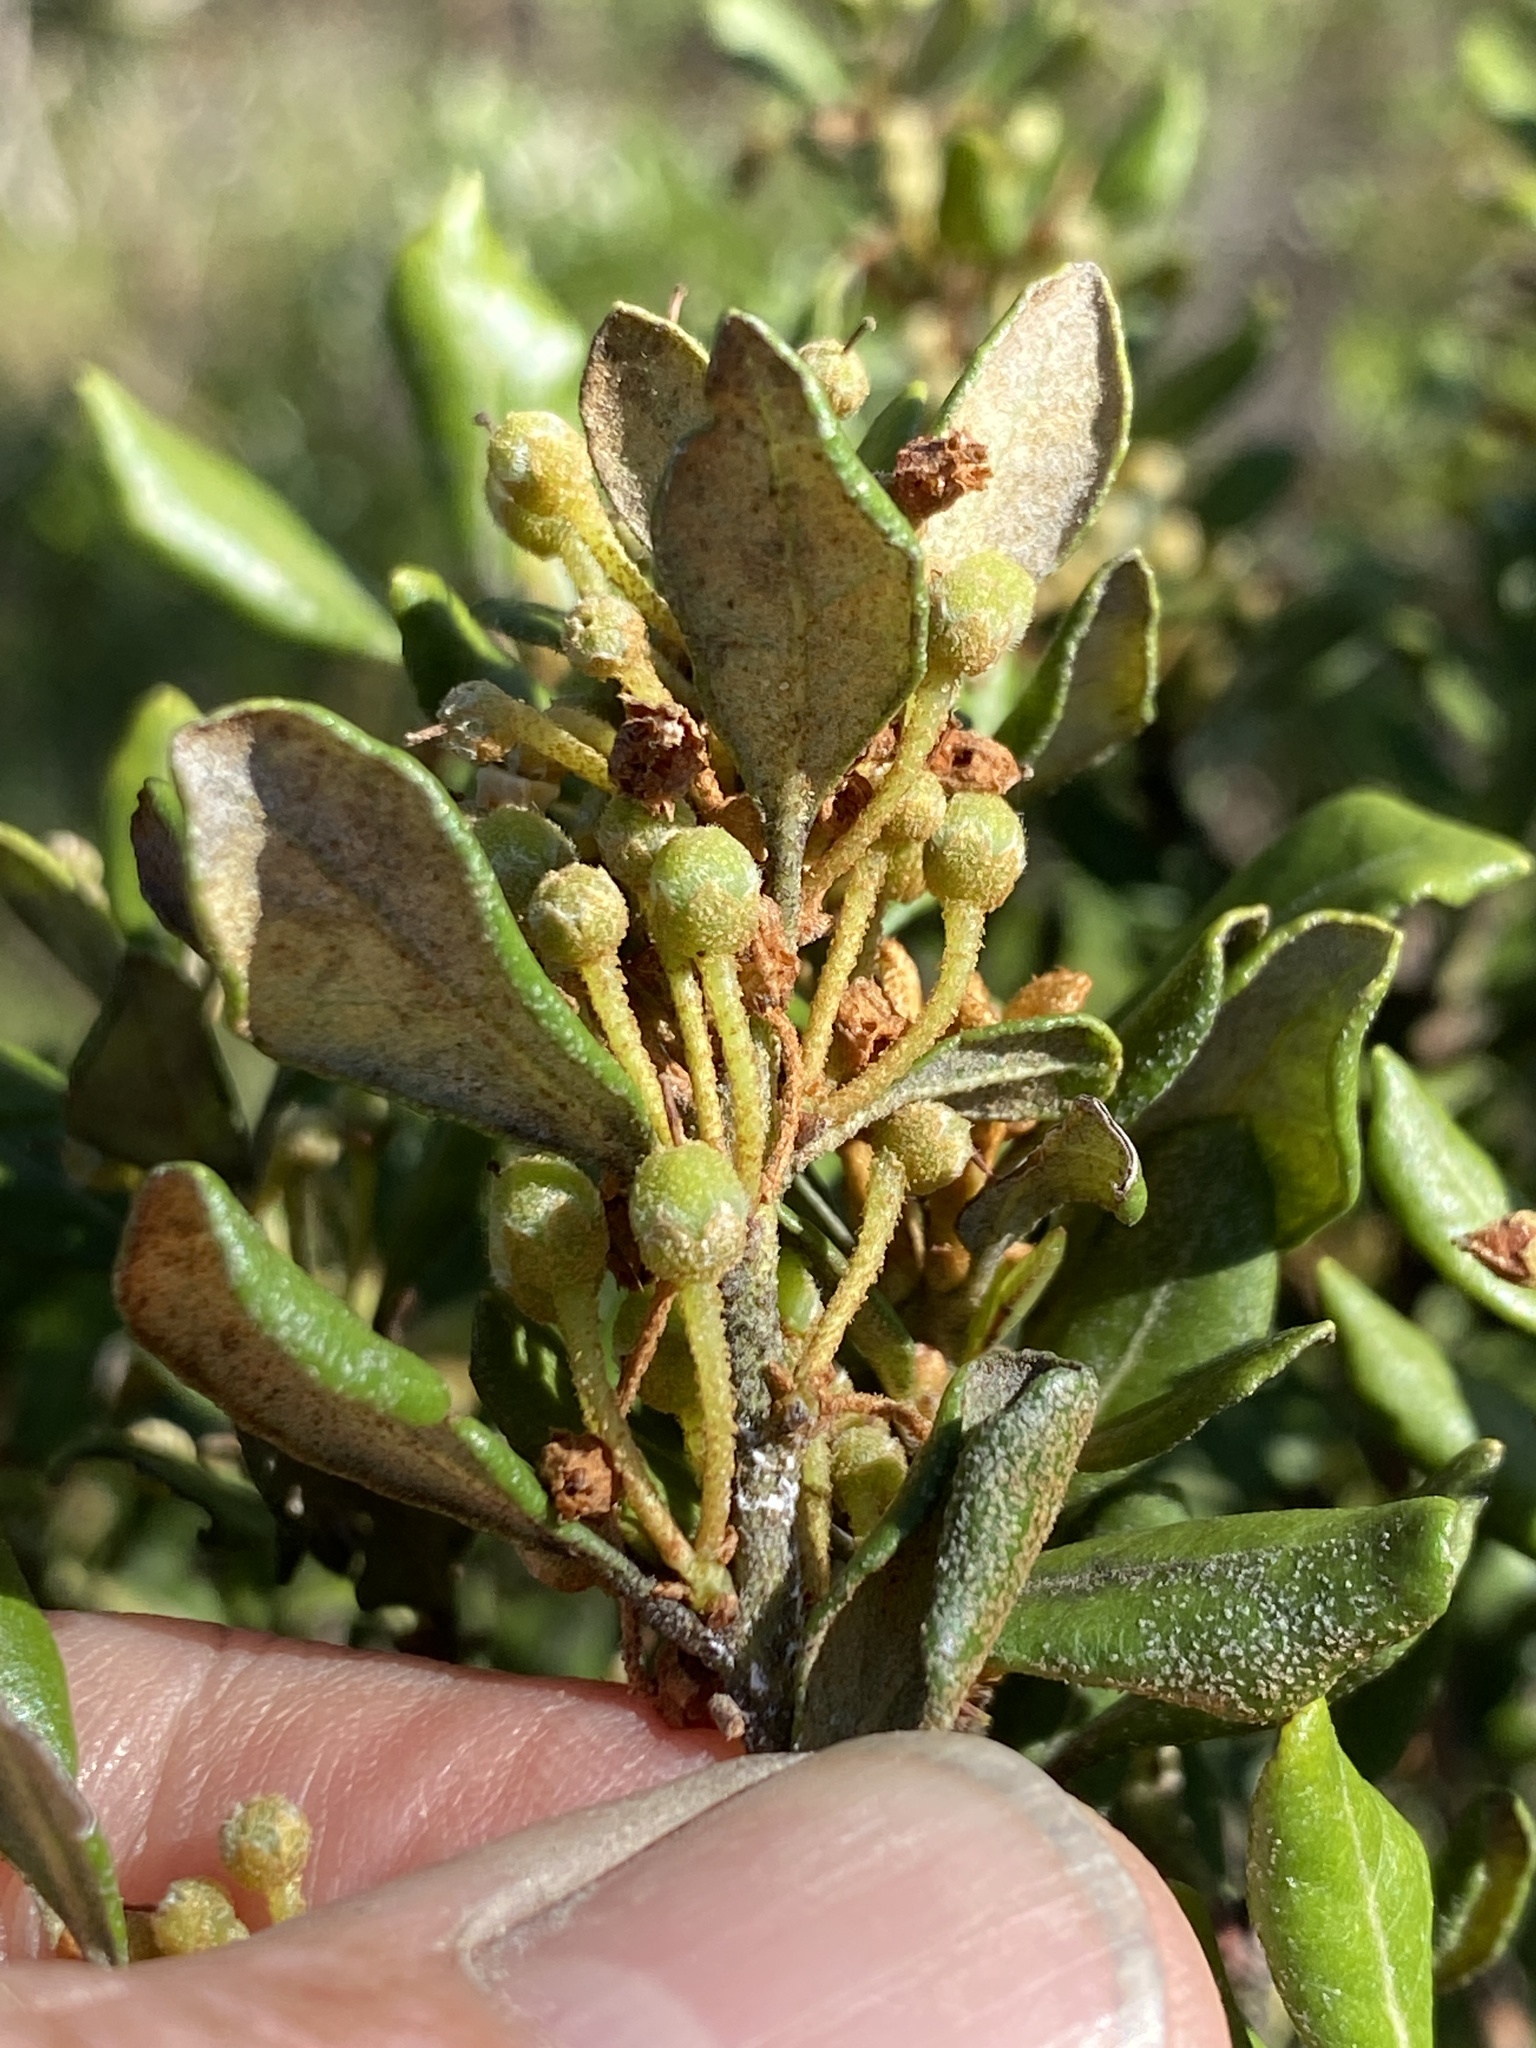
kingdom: Plantae
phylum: Tracheophyta
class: Magnoliopsida
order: Ericales
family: Ericaceae
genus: Lyonia
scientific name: Lyonia ferruginea
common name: Rusty lyonia
